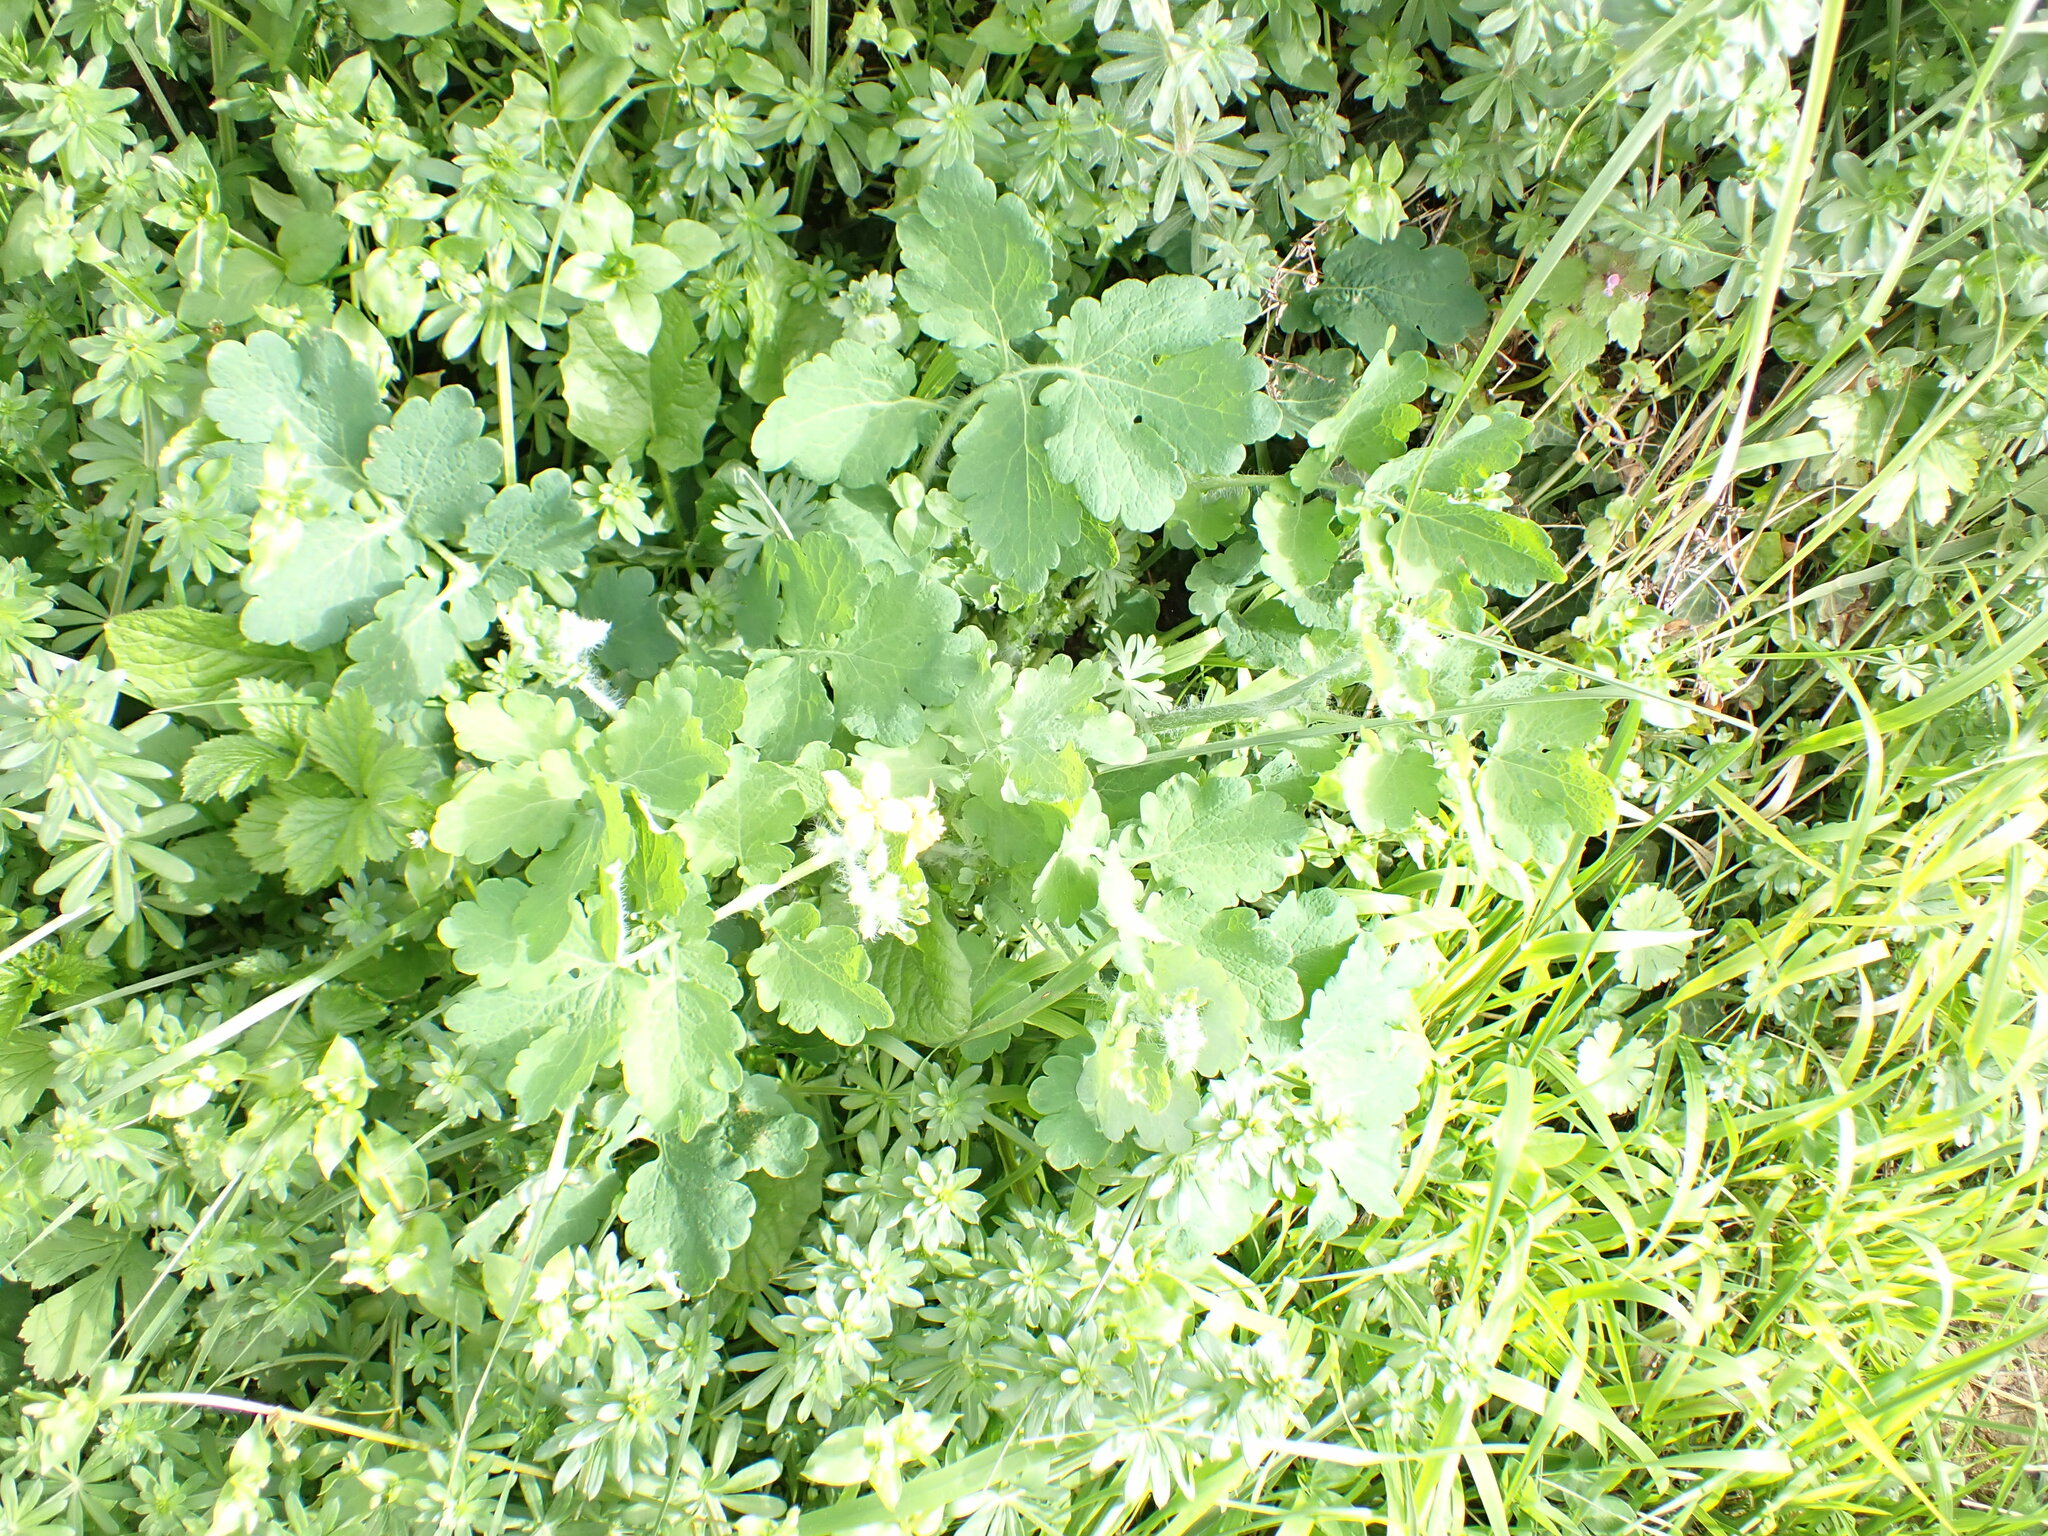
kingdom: Plantae
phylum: Tracheophyta
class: Magnoliopsida
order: Ranunculales
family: Papaveraceae
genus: Chelidonium
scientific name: Chelidonium majus
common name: Greater celandine
